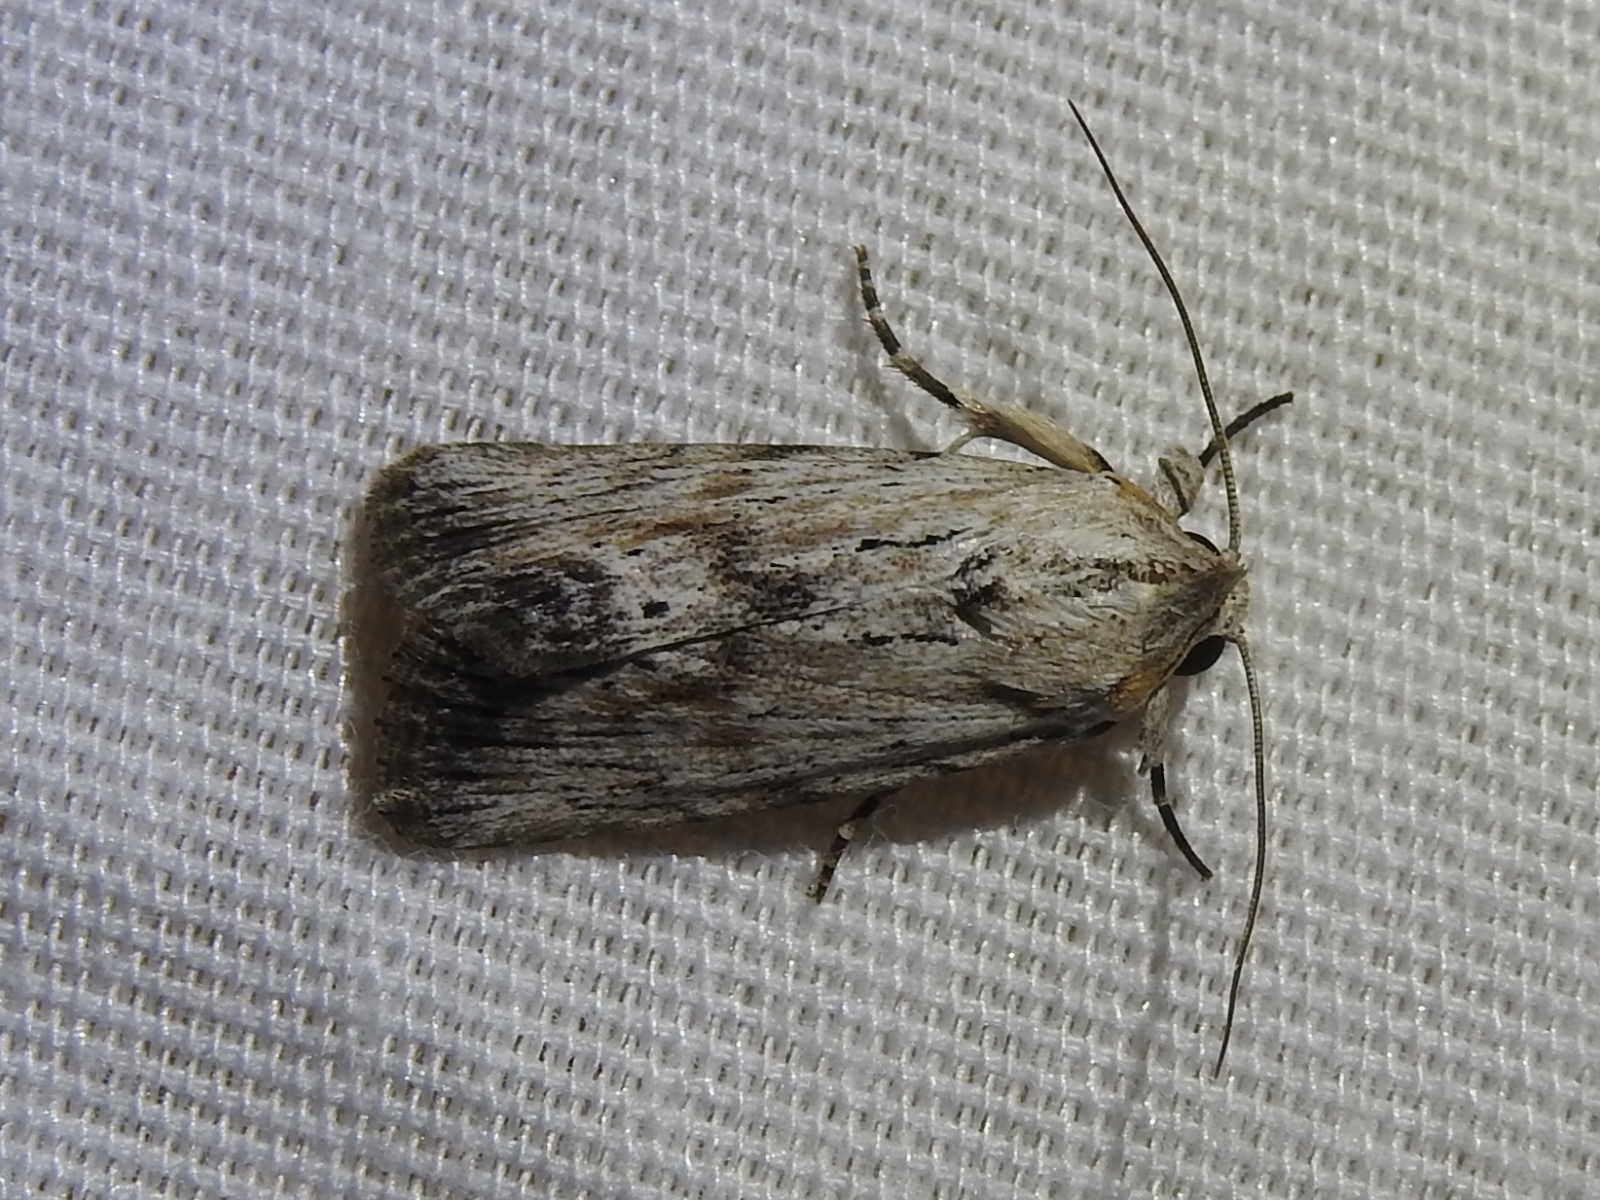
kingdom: Animalia
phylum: Arthropoda
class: Insecta
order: Lepidoptera
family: Noctuidae
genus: Catabenoides
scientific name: Catabenoides terminellus
